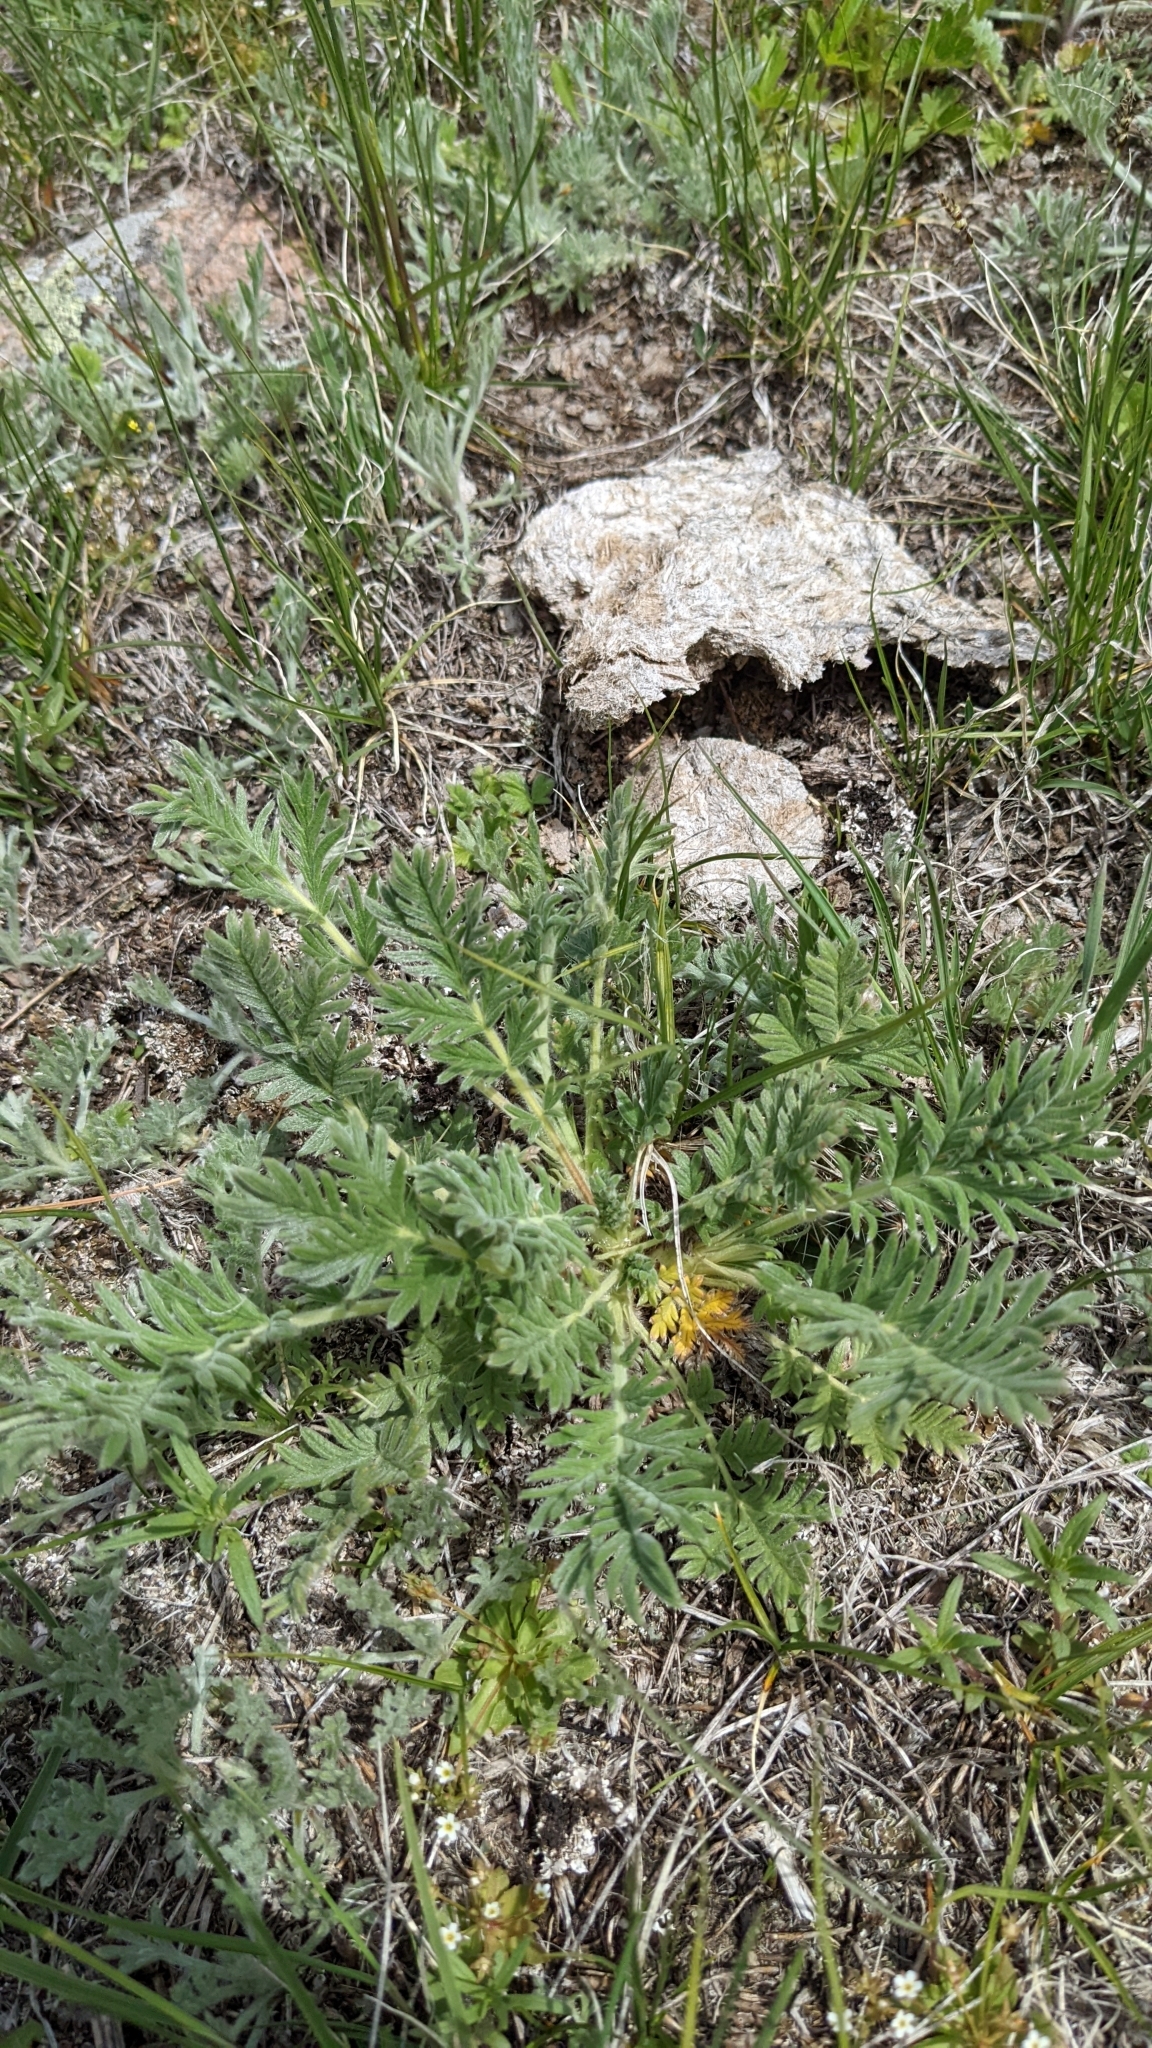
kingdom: Plantae
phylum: Tracheophyta
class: Magnoliopsida
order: Rosales
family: Rosaceae
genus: Potentilla
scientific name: Potentilla pensylvanica
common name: Pennsylvania cinquefoil
